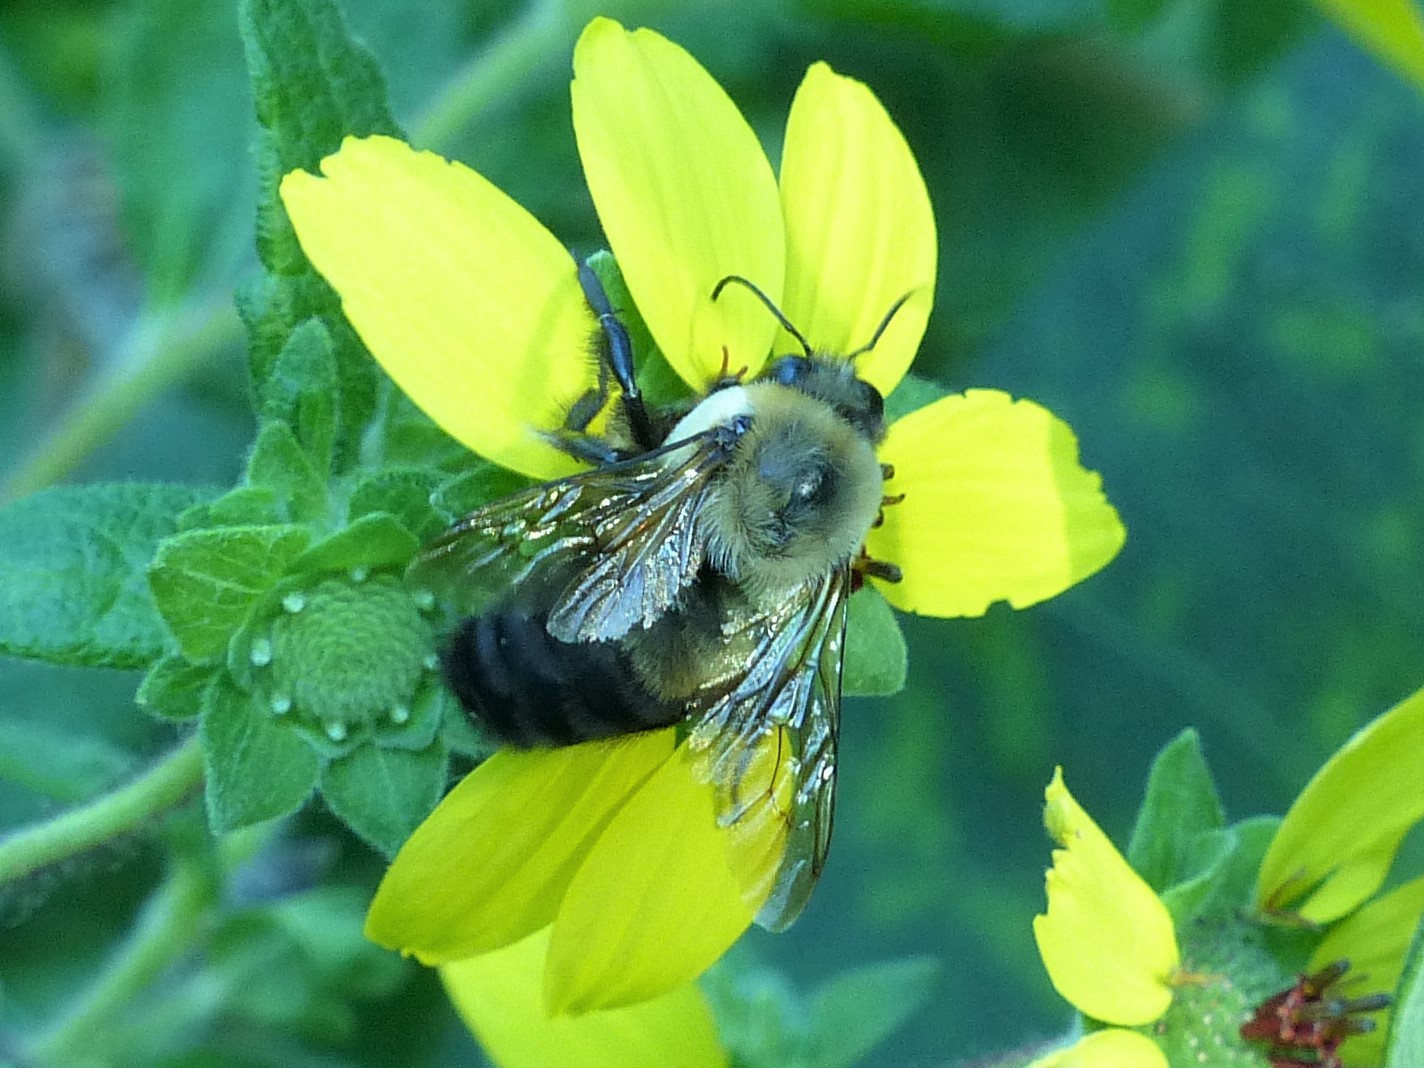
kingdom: Animalia
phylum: Arthropoda
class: Insecta
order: Hymenoptera
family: Apidae
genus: Bombus
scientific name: Bombus griseocollis
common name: Brown-belted bumble bee
